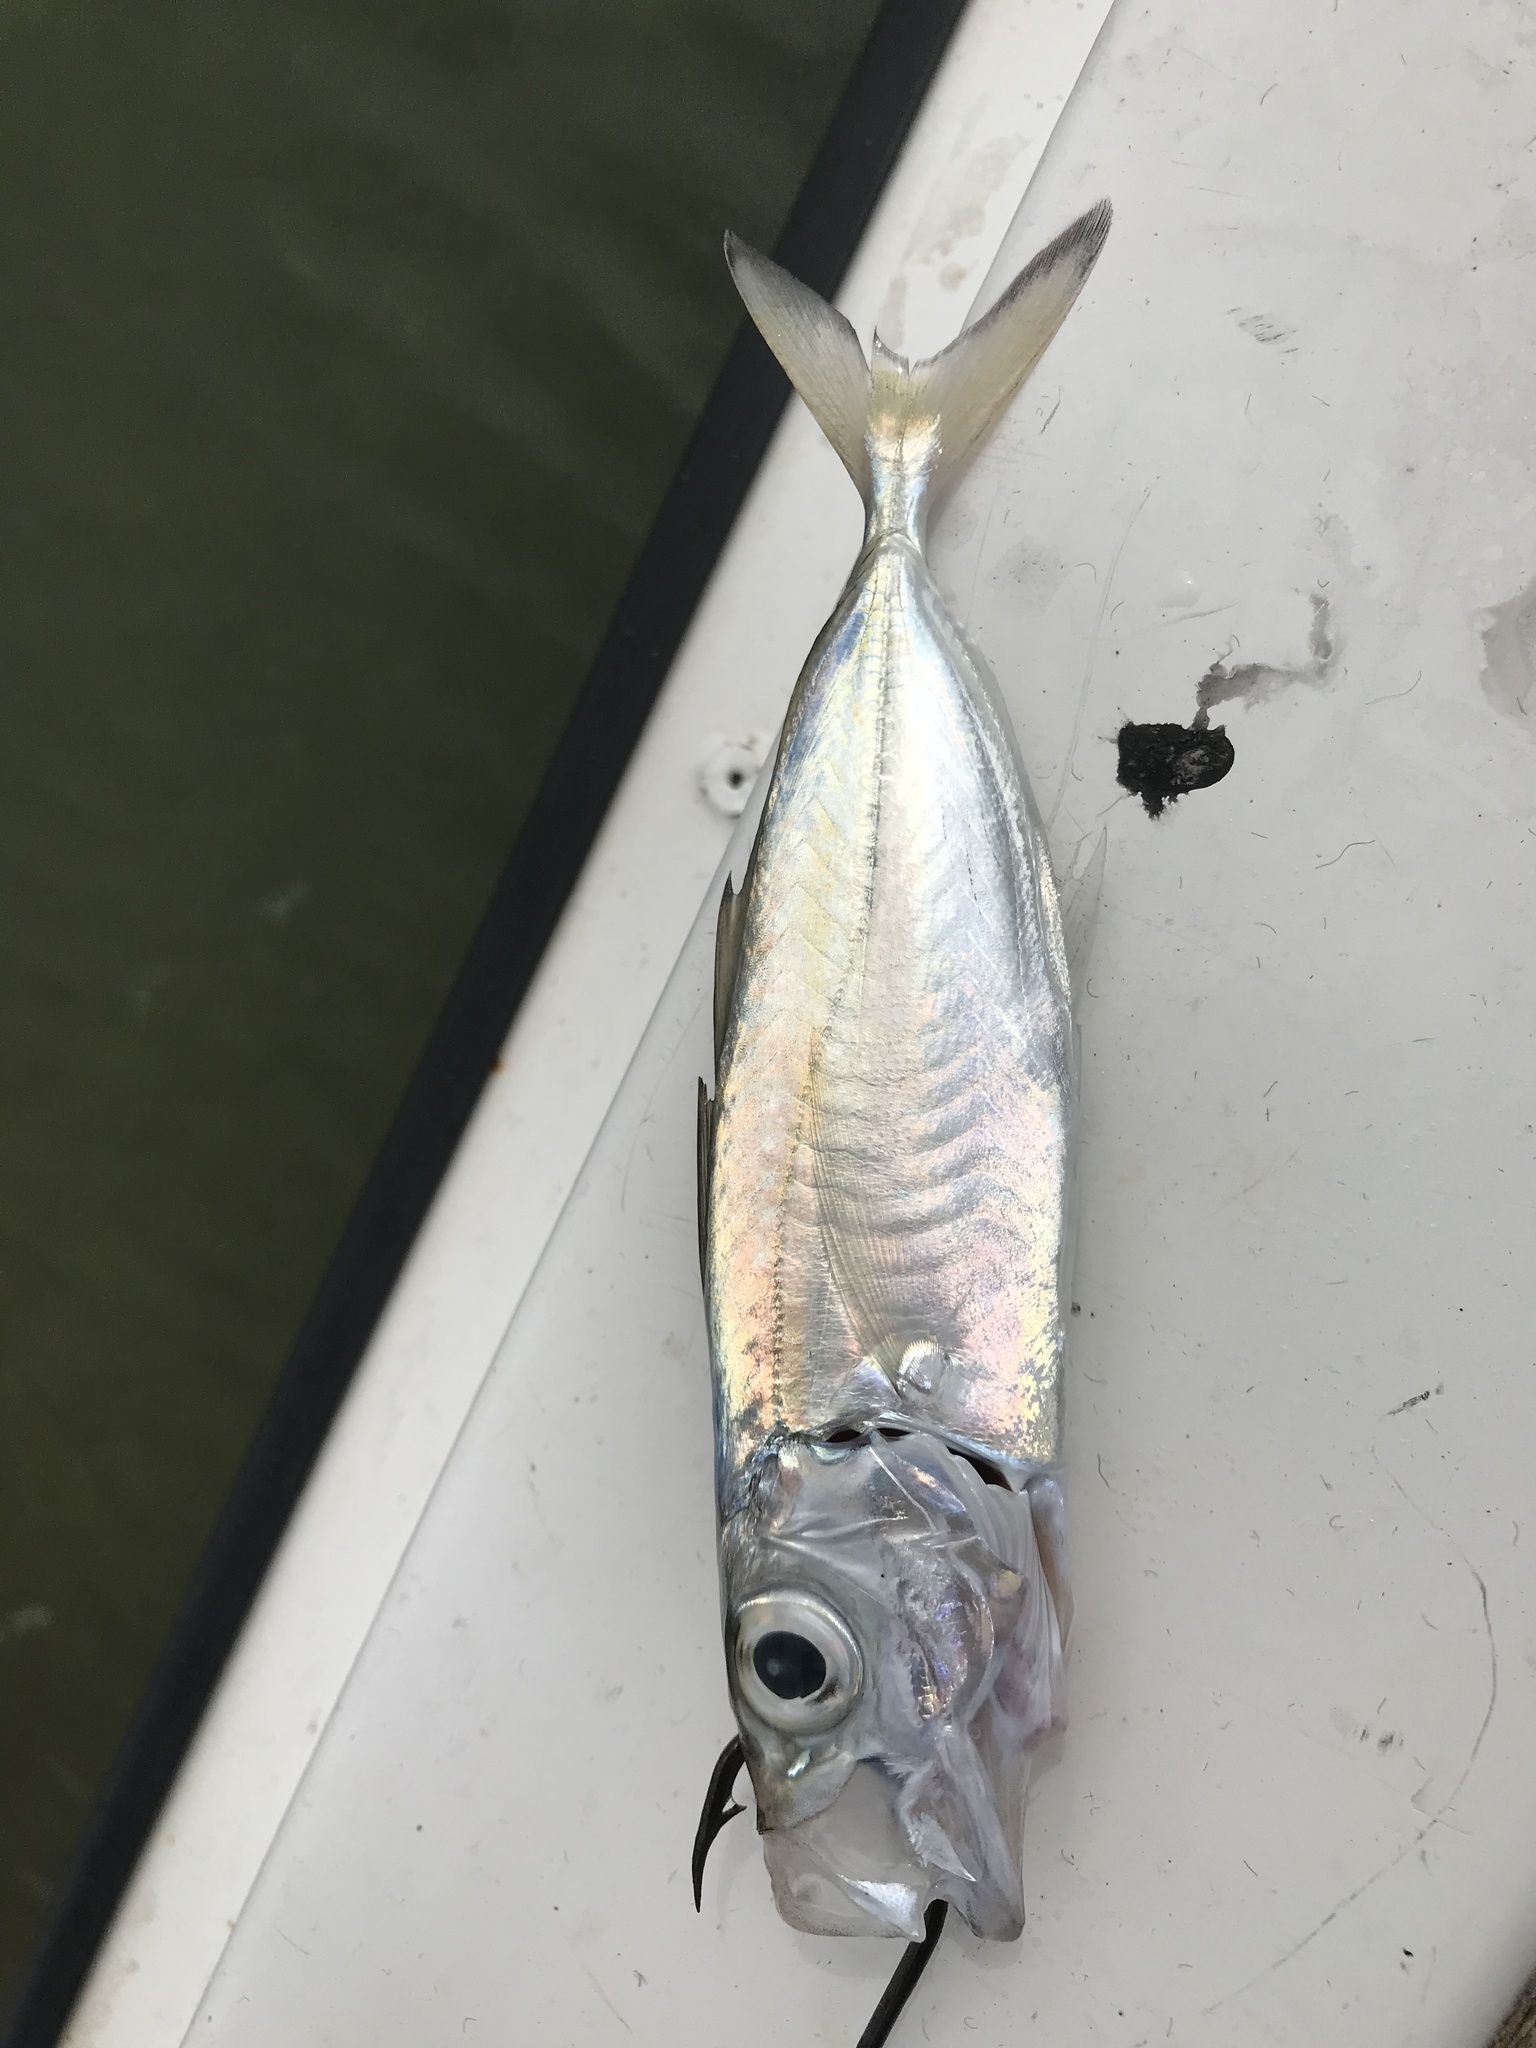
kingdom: Animalia
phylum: Chordata
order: Perciformes
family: Carangidae
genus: Selar
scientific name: Selar crumenophthalmus
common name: Bigeye scad
